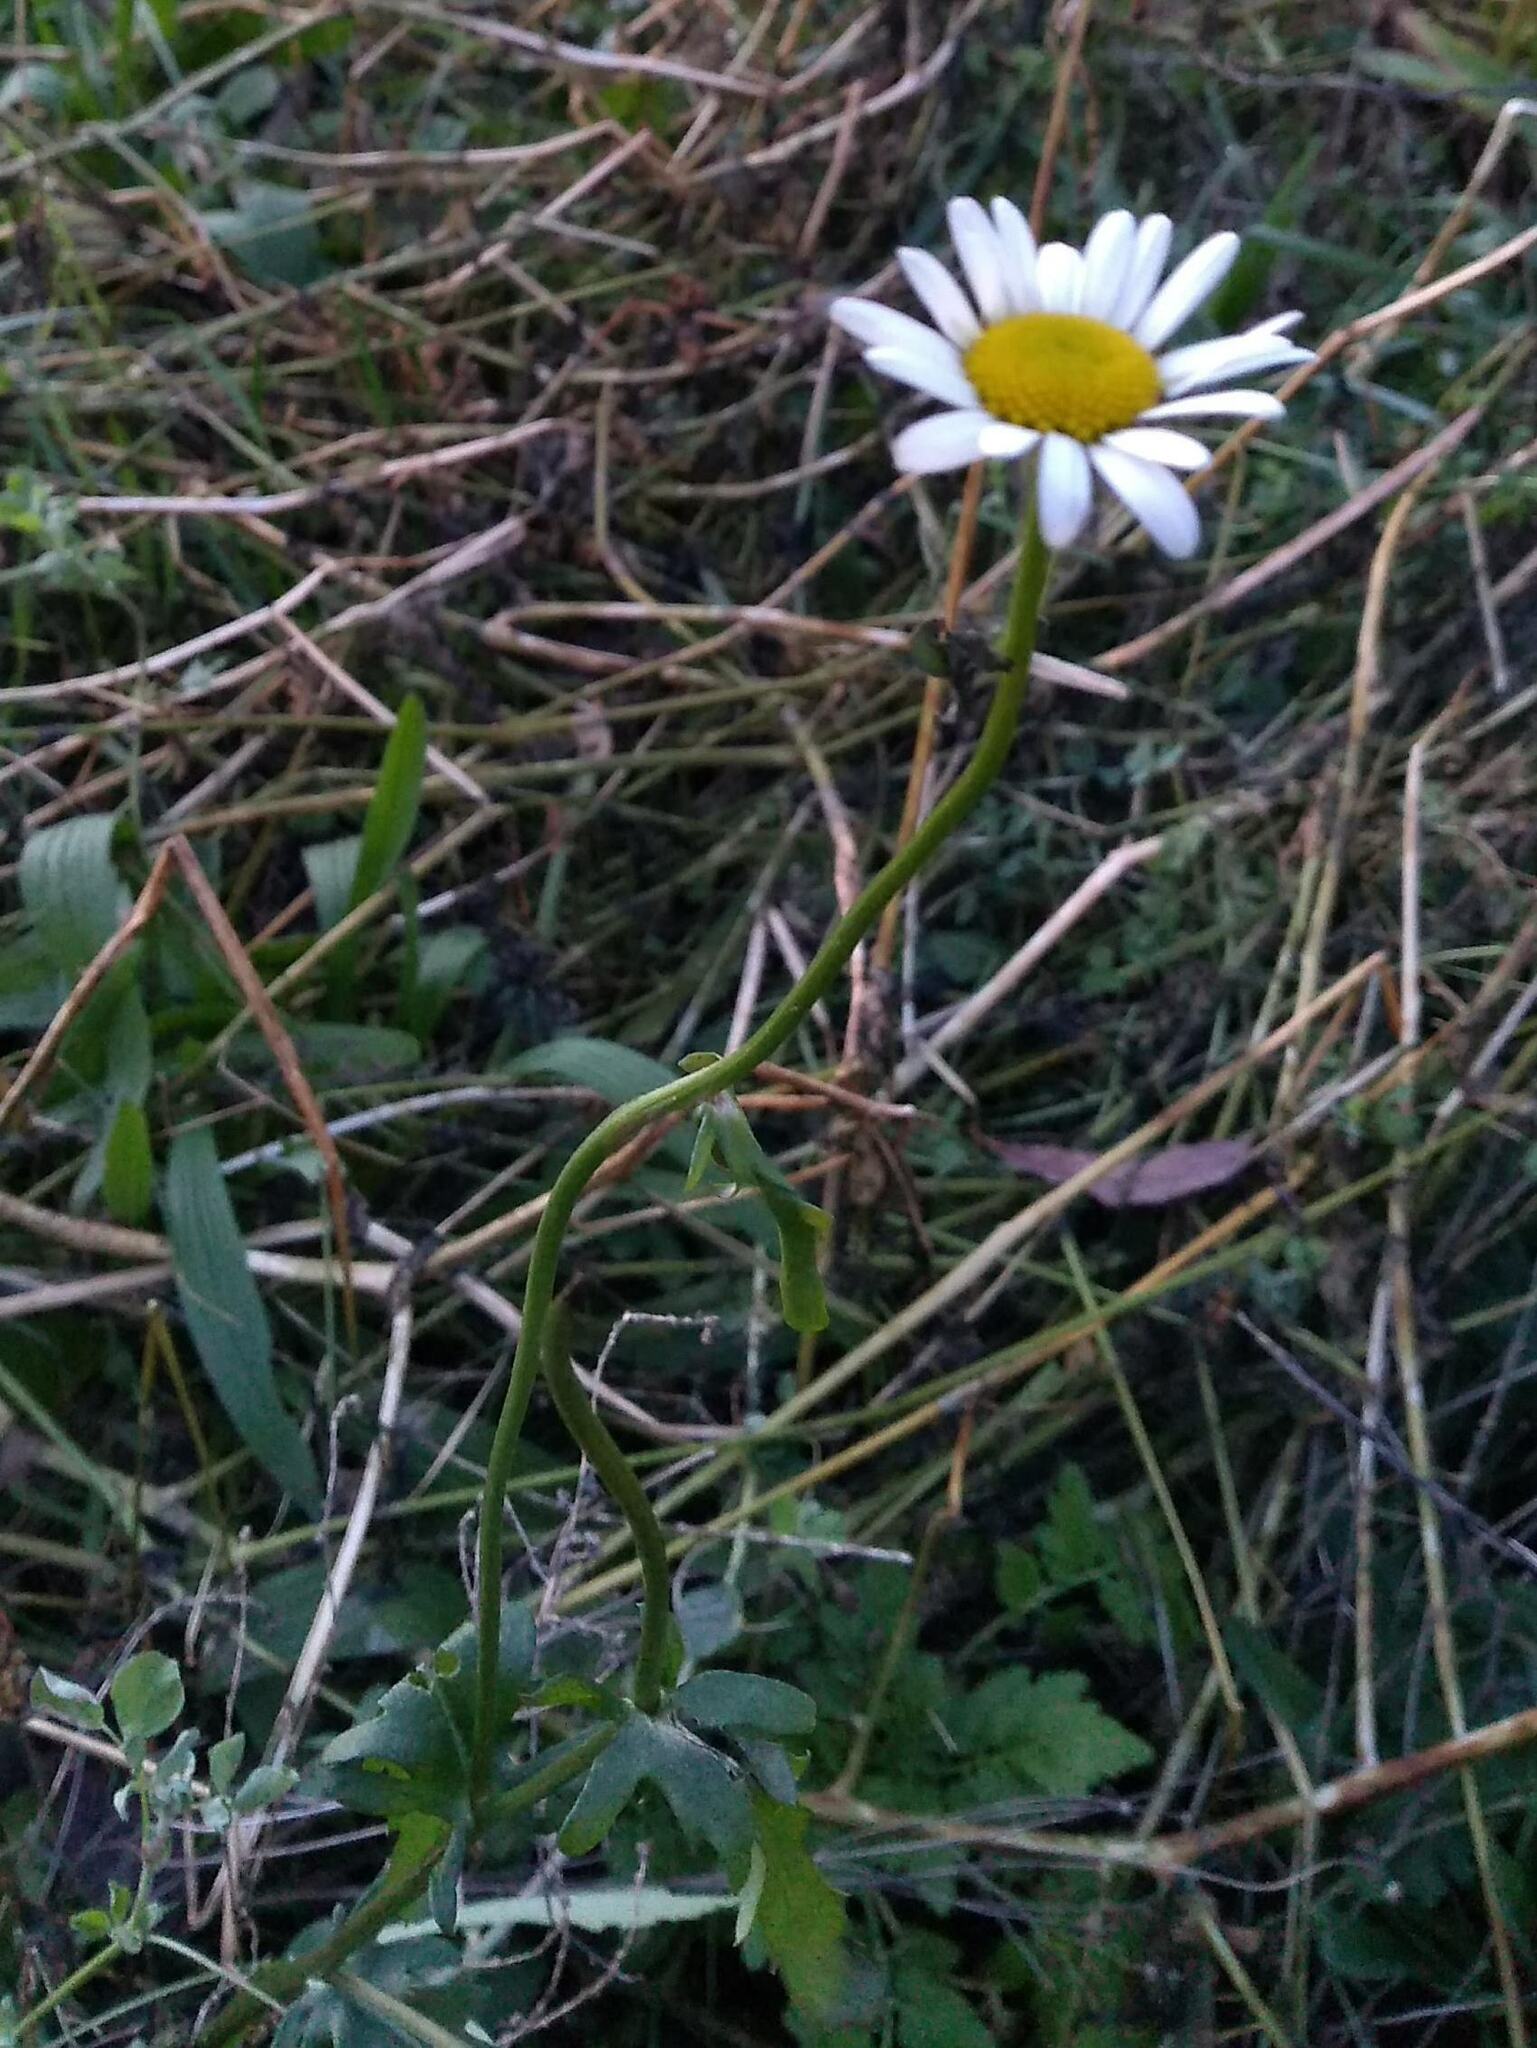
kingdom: Plantae
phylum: Tracheophyta
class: Magnoliopsida
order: Asterales
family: Asteraceae
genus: Leucanthemum
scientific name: Leucanthemum vulgare
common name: Oxeye daisy
